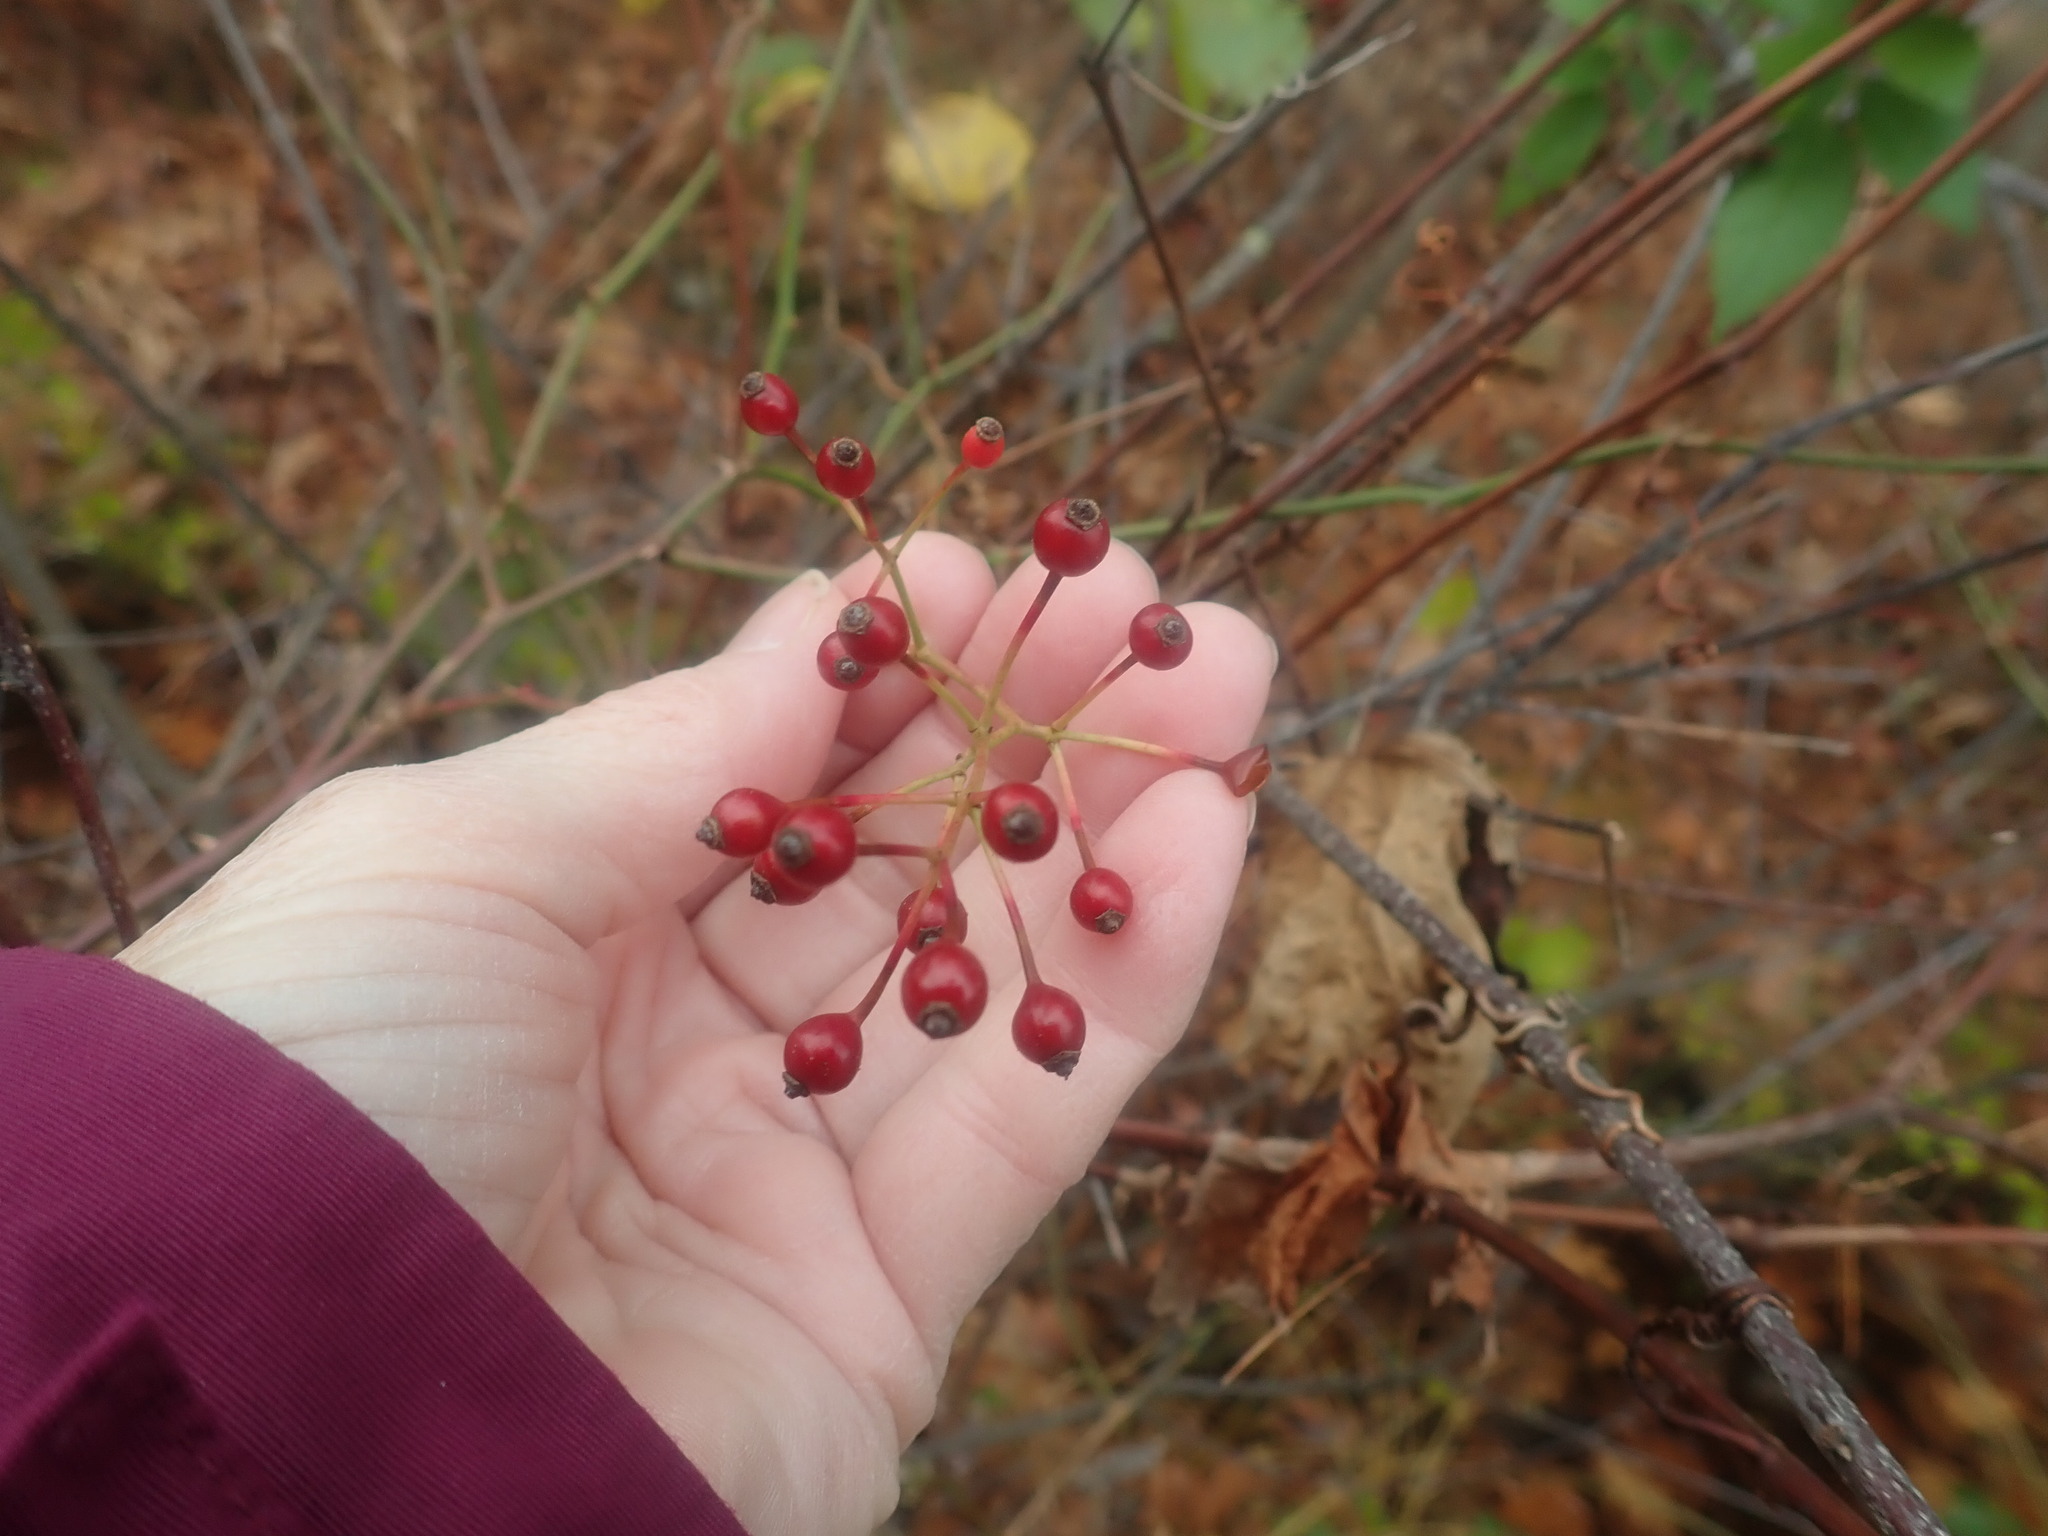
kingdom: Plantae
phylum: Tracheophyta
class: Magnoliopsida
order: Rosales
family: Rosaceae
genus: Rosa
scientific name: Rosa multiflora
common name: Multiflora rose
